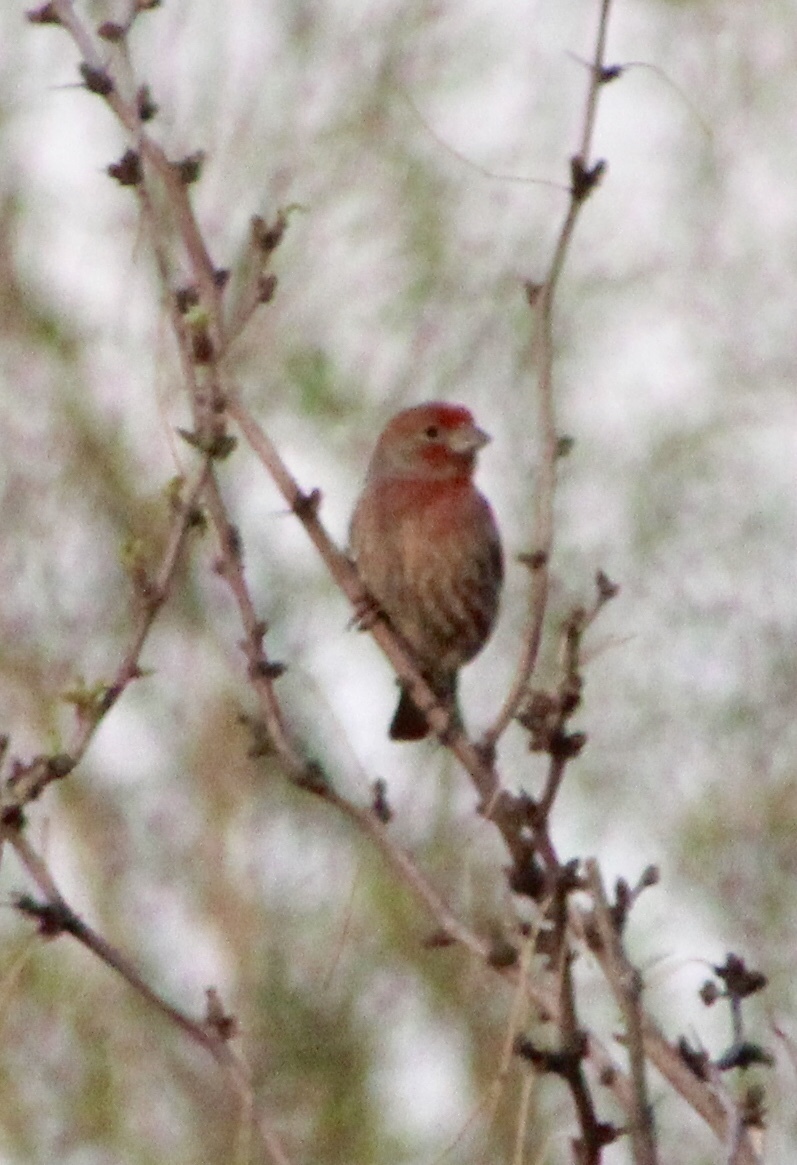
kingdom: Animalia
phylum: Chordata
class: Aves
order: Passeriformes
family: Fringillidae
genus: Haemorhous
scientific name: Haemorhous mexicanus
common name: House finch
